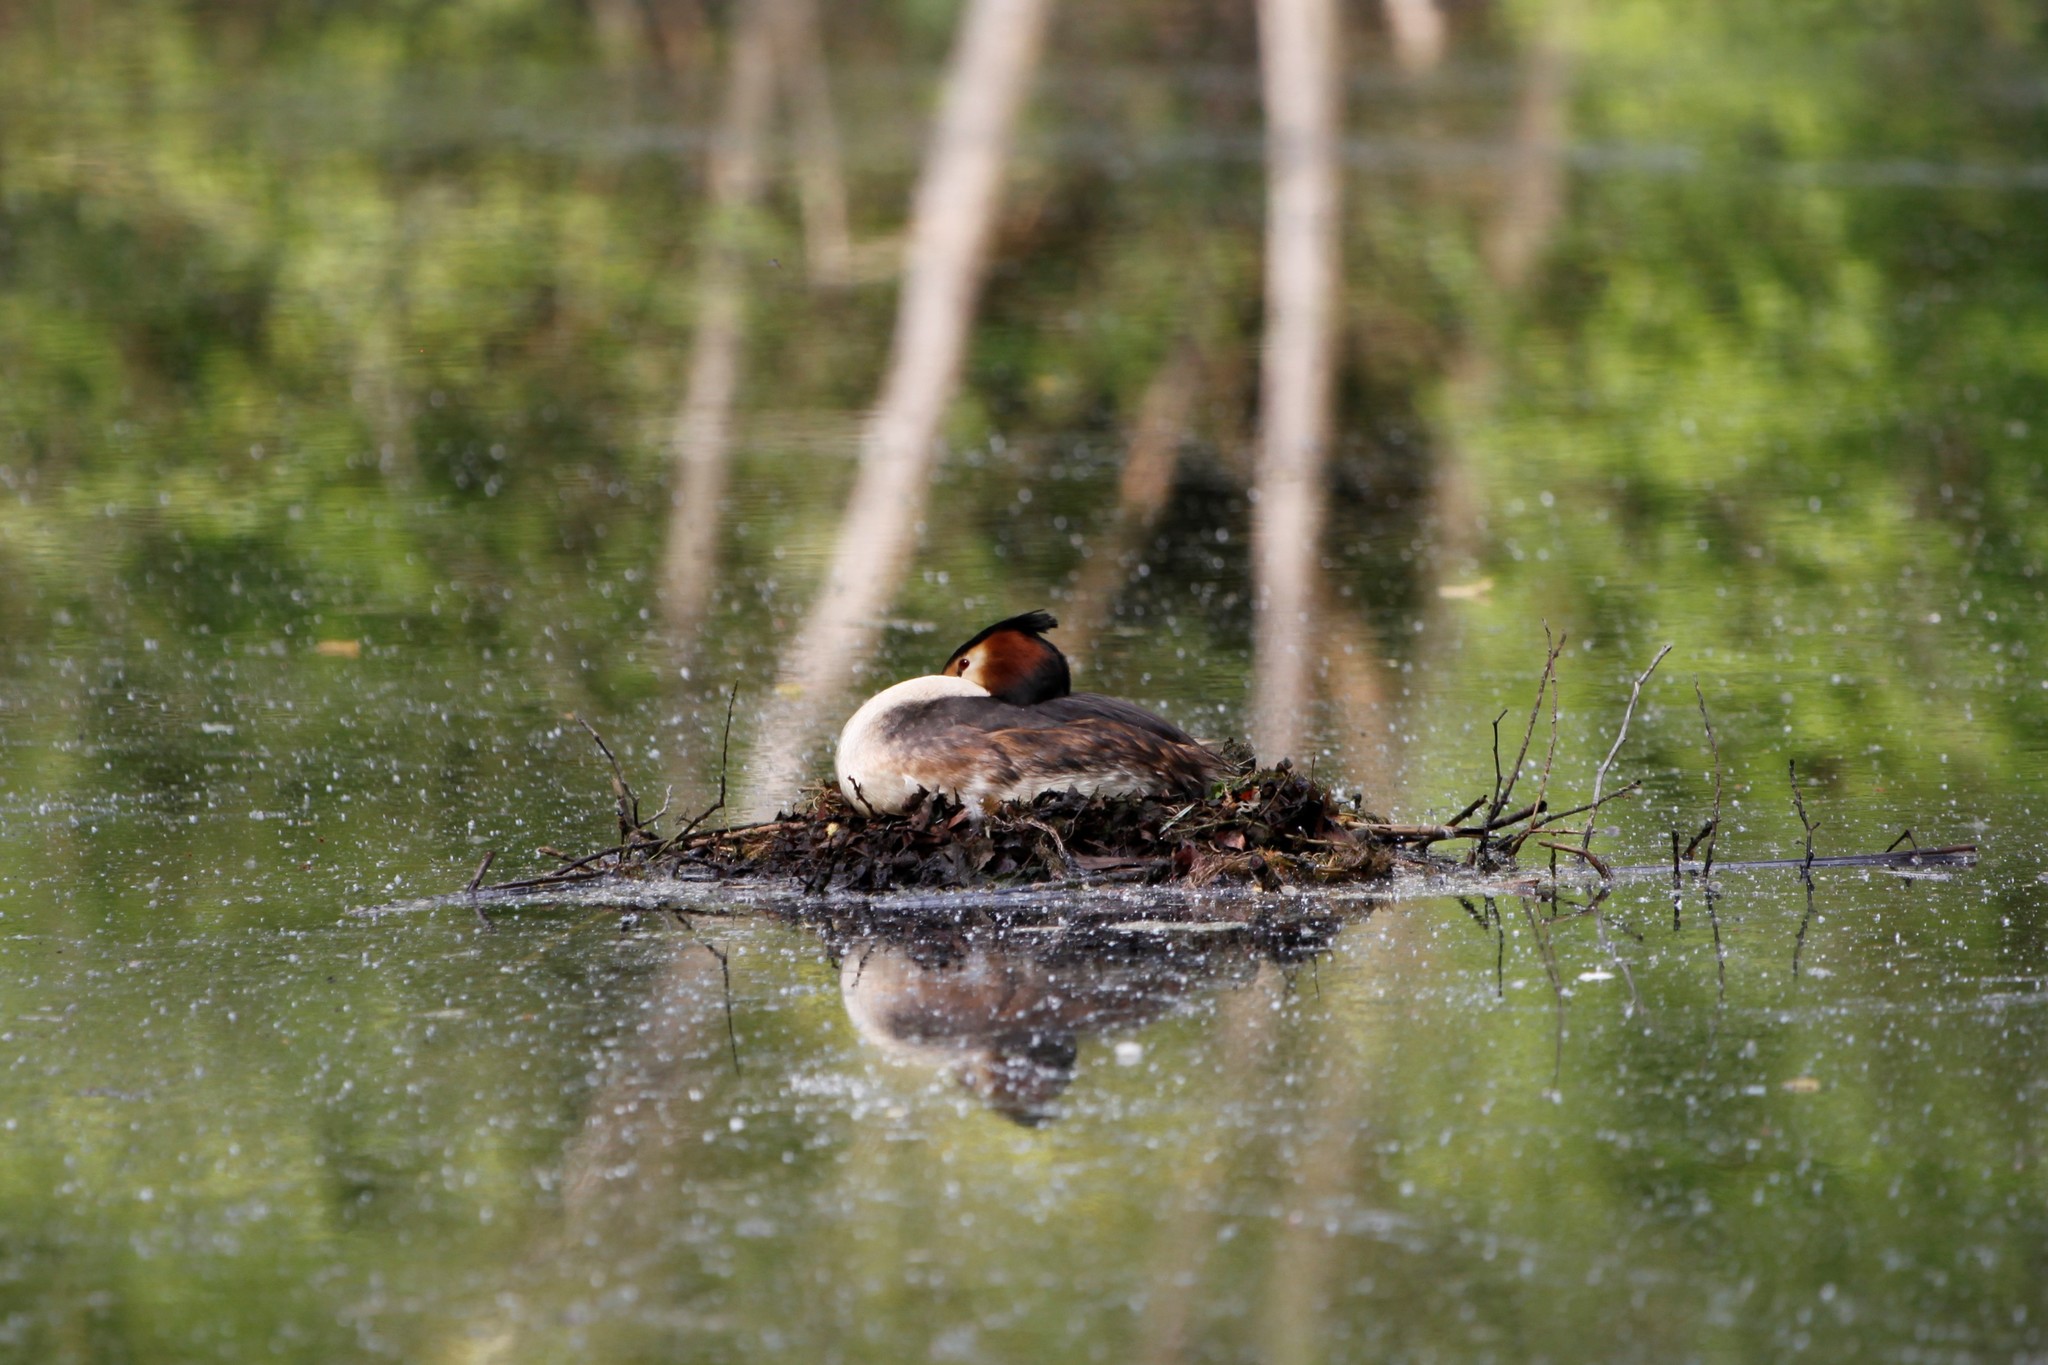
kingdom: Animalia
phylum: Chordata
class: Aves
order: Podicipediformes
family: Podicipedidae
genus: Podiceps
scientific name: Podiceps cristatus
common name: Great crested grebe
